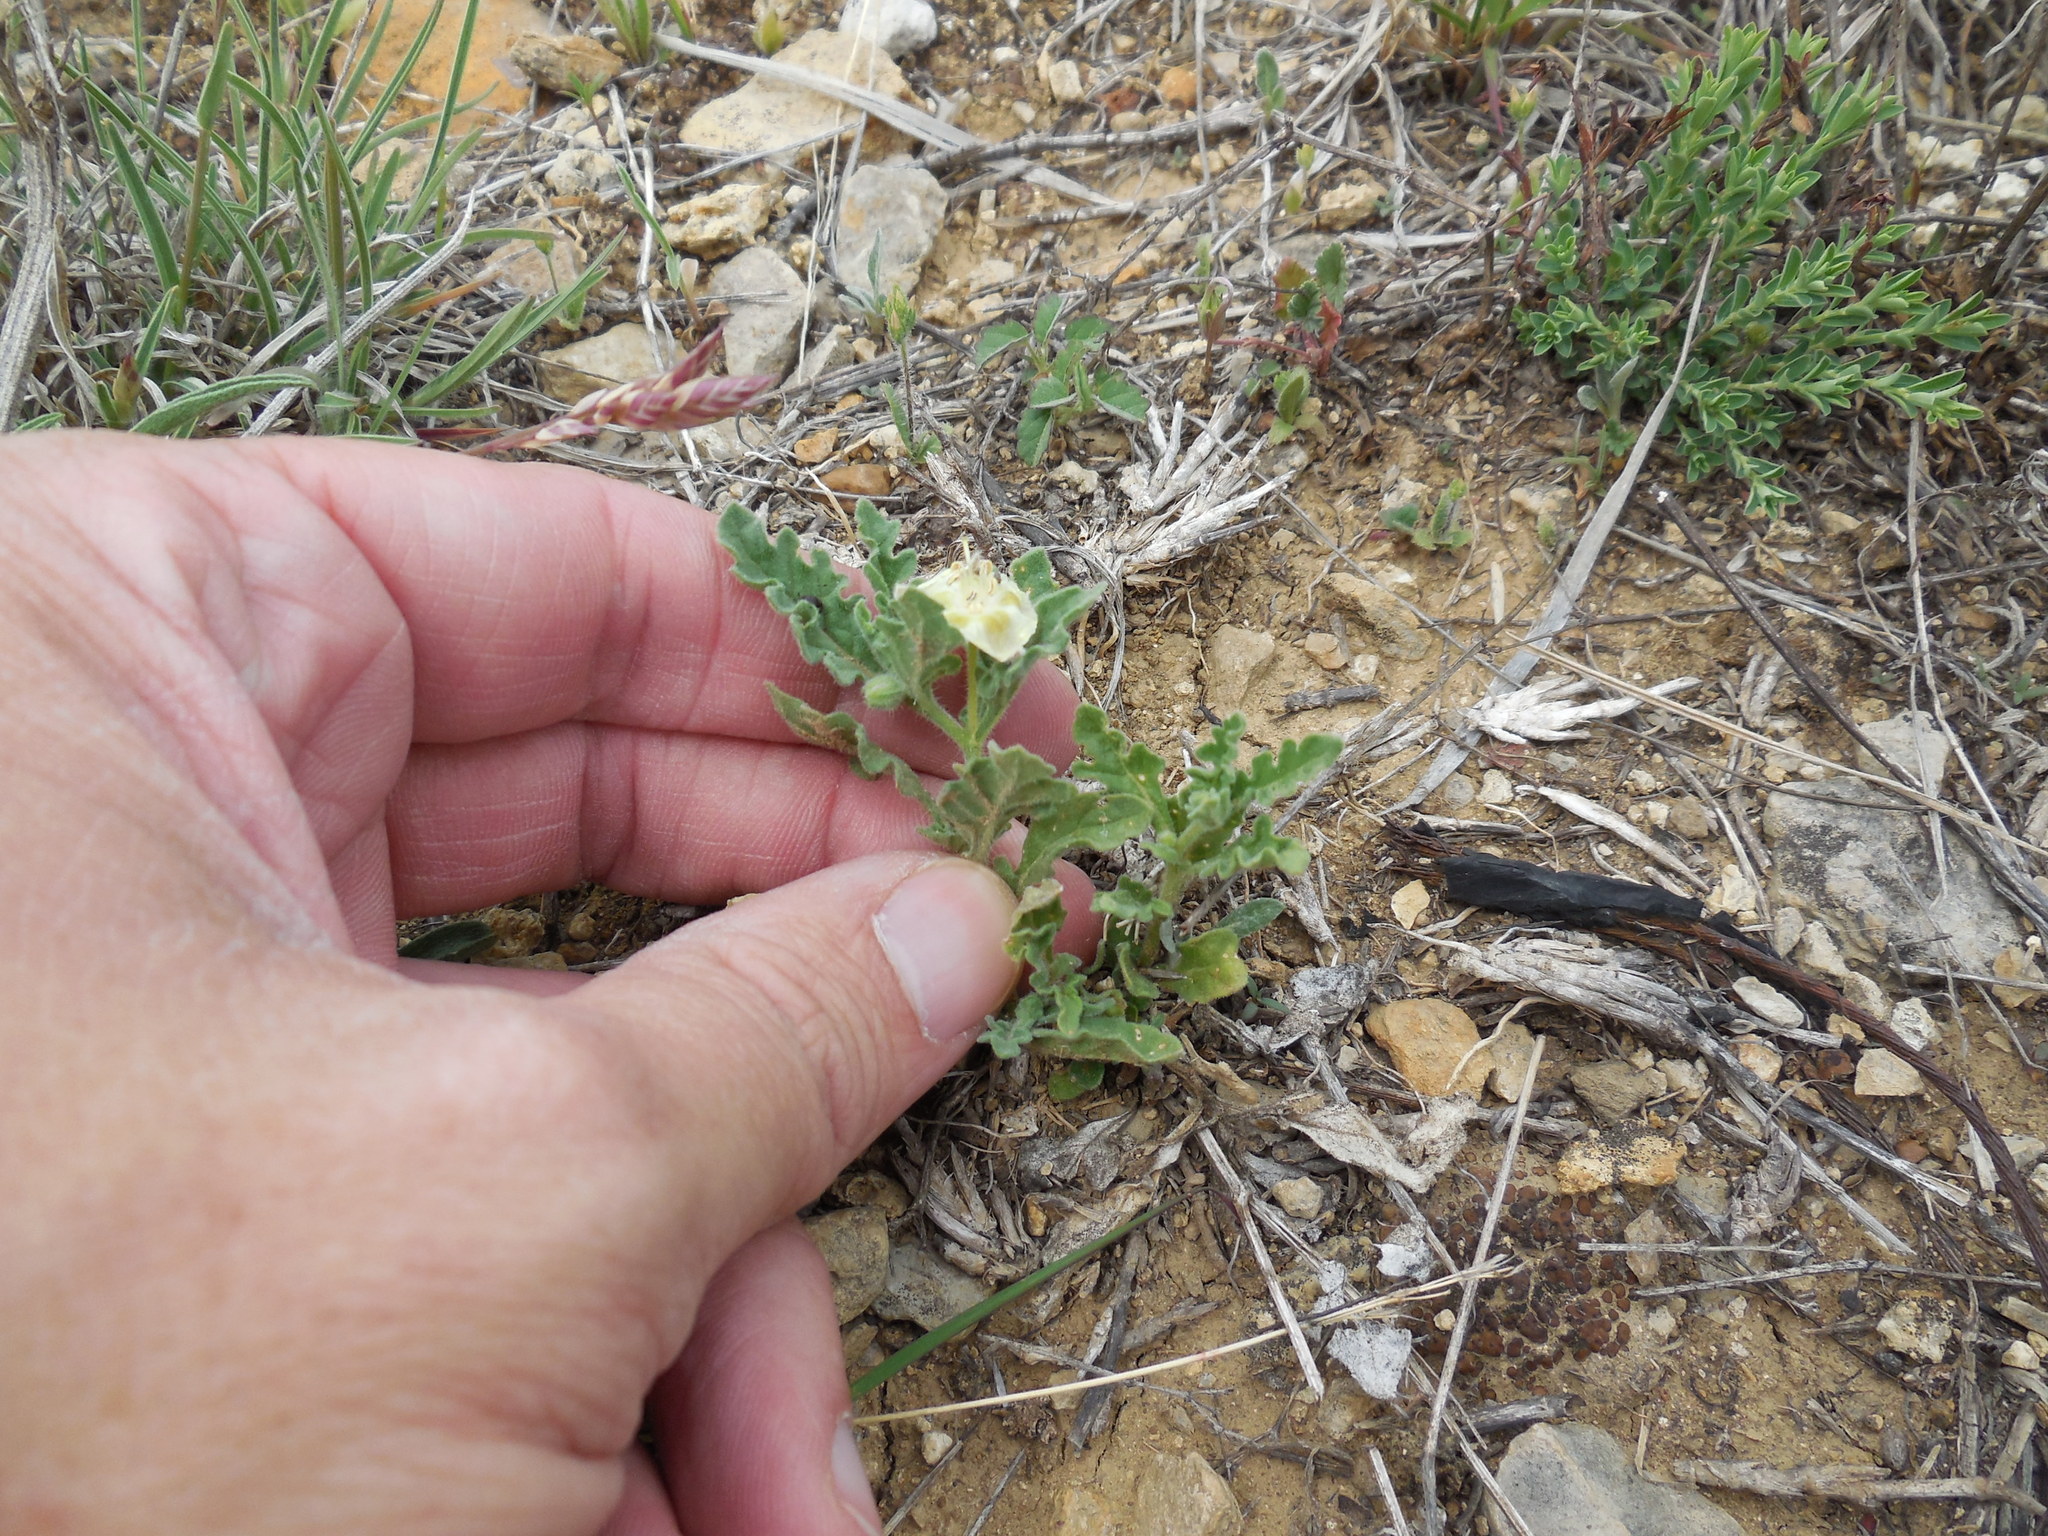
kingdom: Plantae
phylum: Tracheophyta
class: Magnoliopsida
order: Solanales
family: Solanaceae
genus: Chamaesaracha
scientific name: Chamaesaracha coniodes
